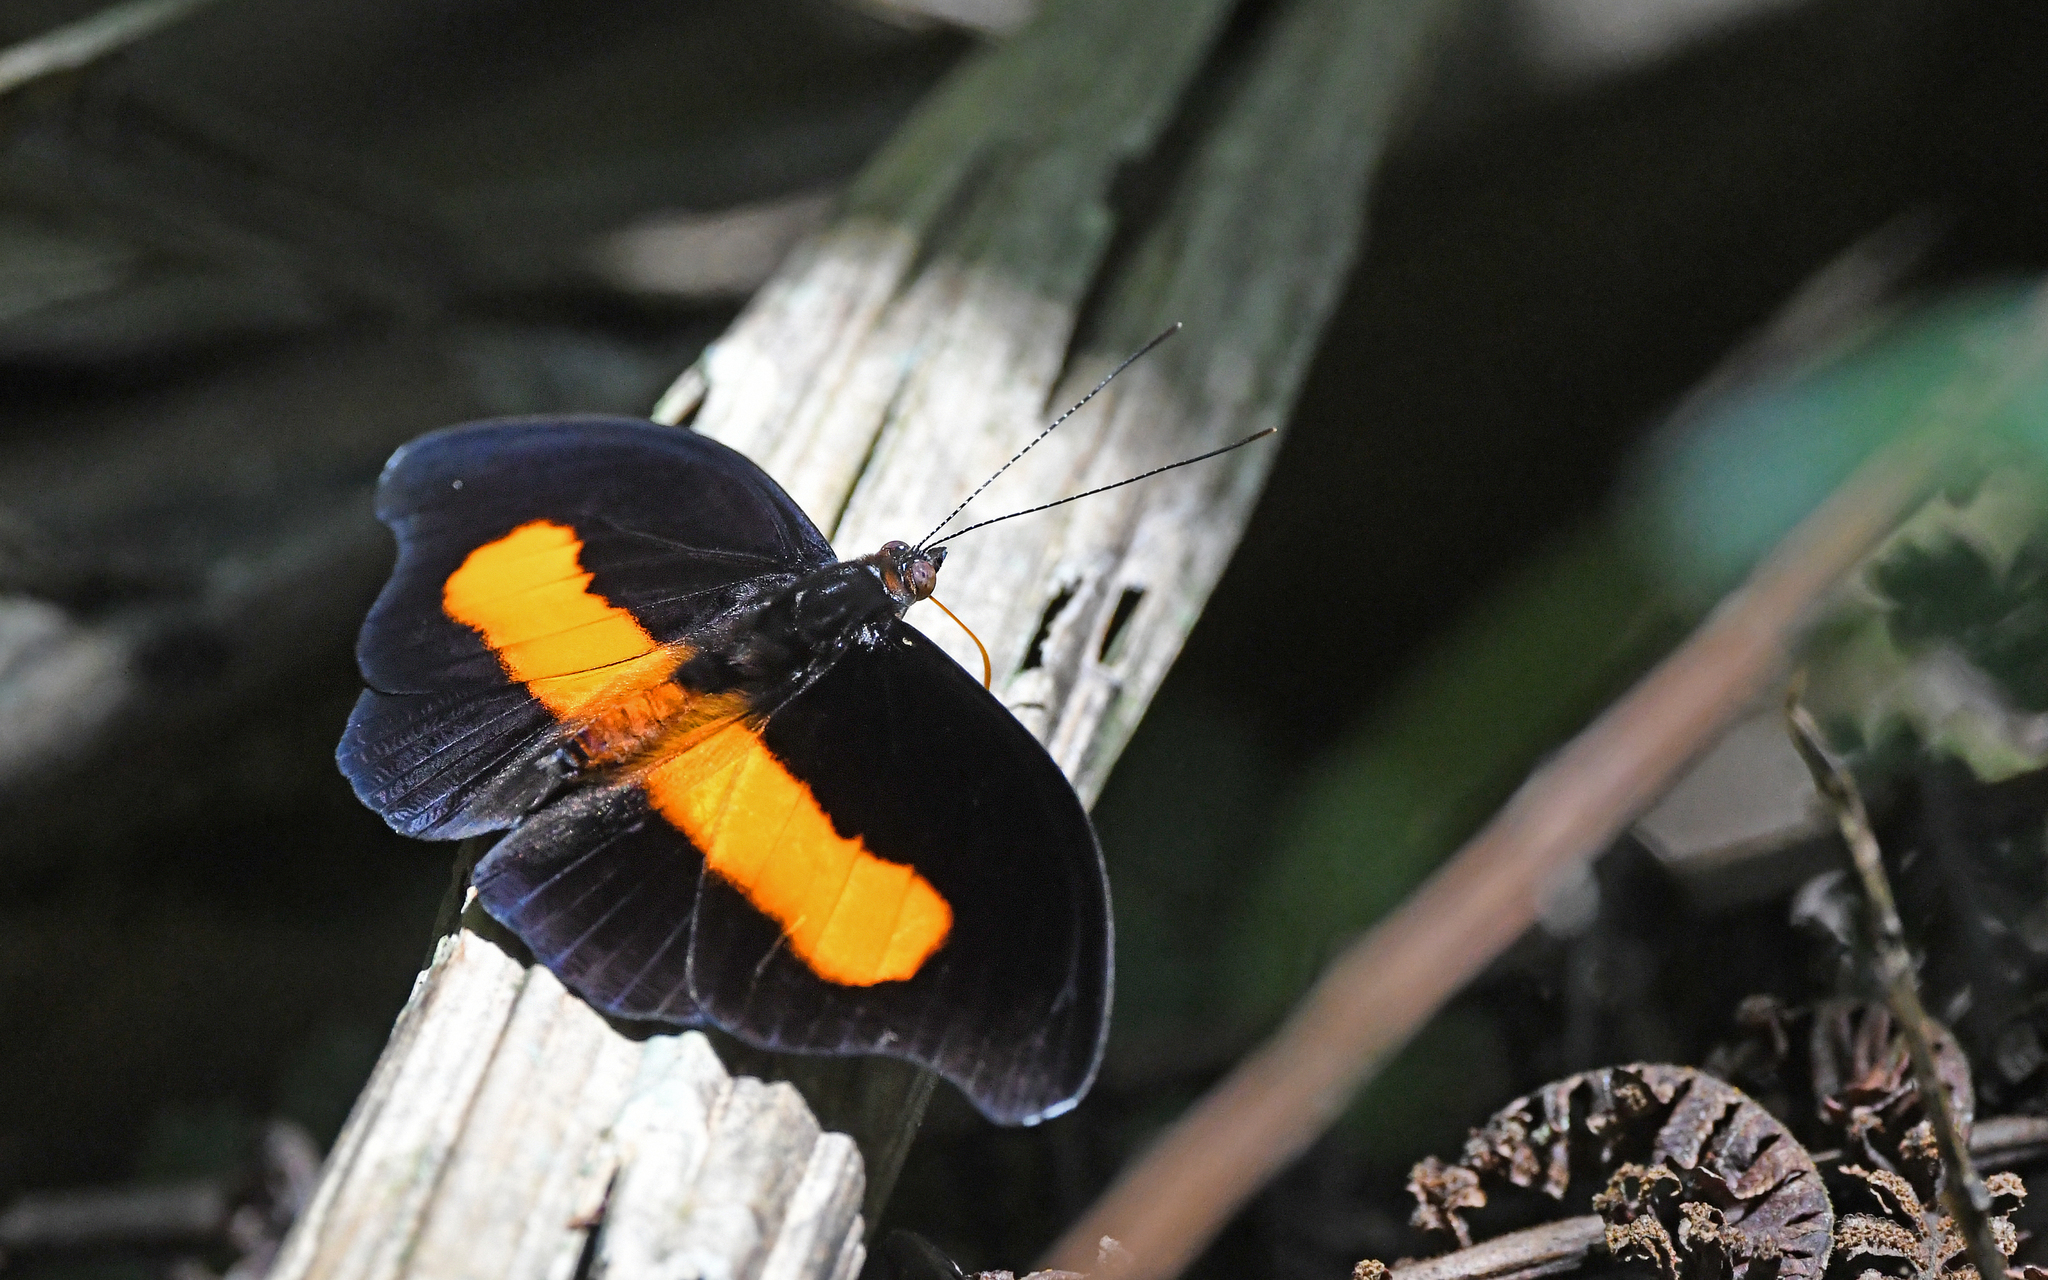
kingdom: Animalia
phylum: Arthropoda
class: Insecta
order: Lepidoptera
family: Nymphalidae
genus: Catonephele
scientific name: Catonephele orites
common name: Orange-banded shoemaker
